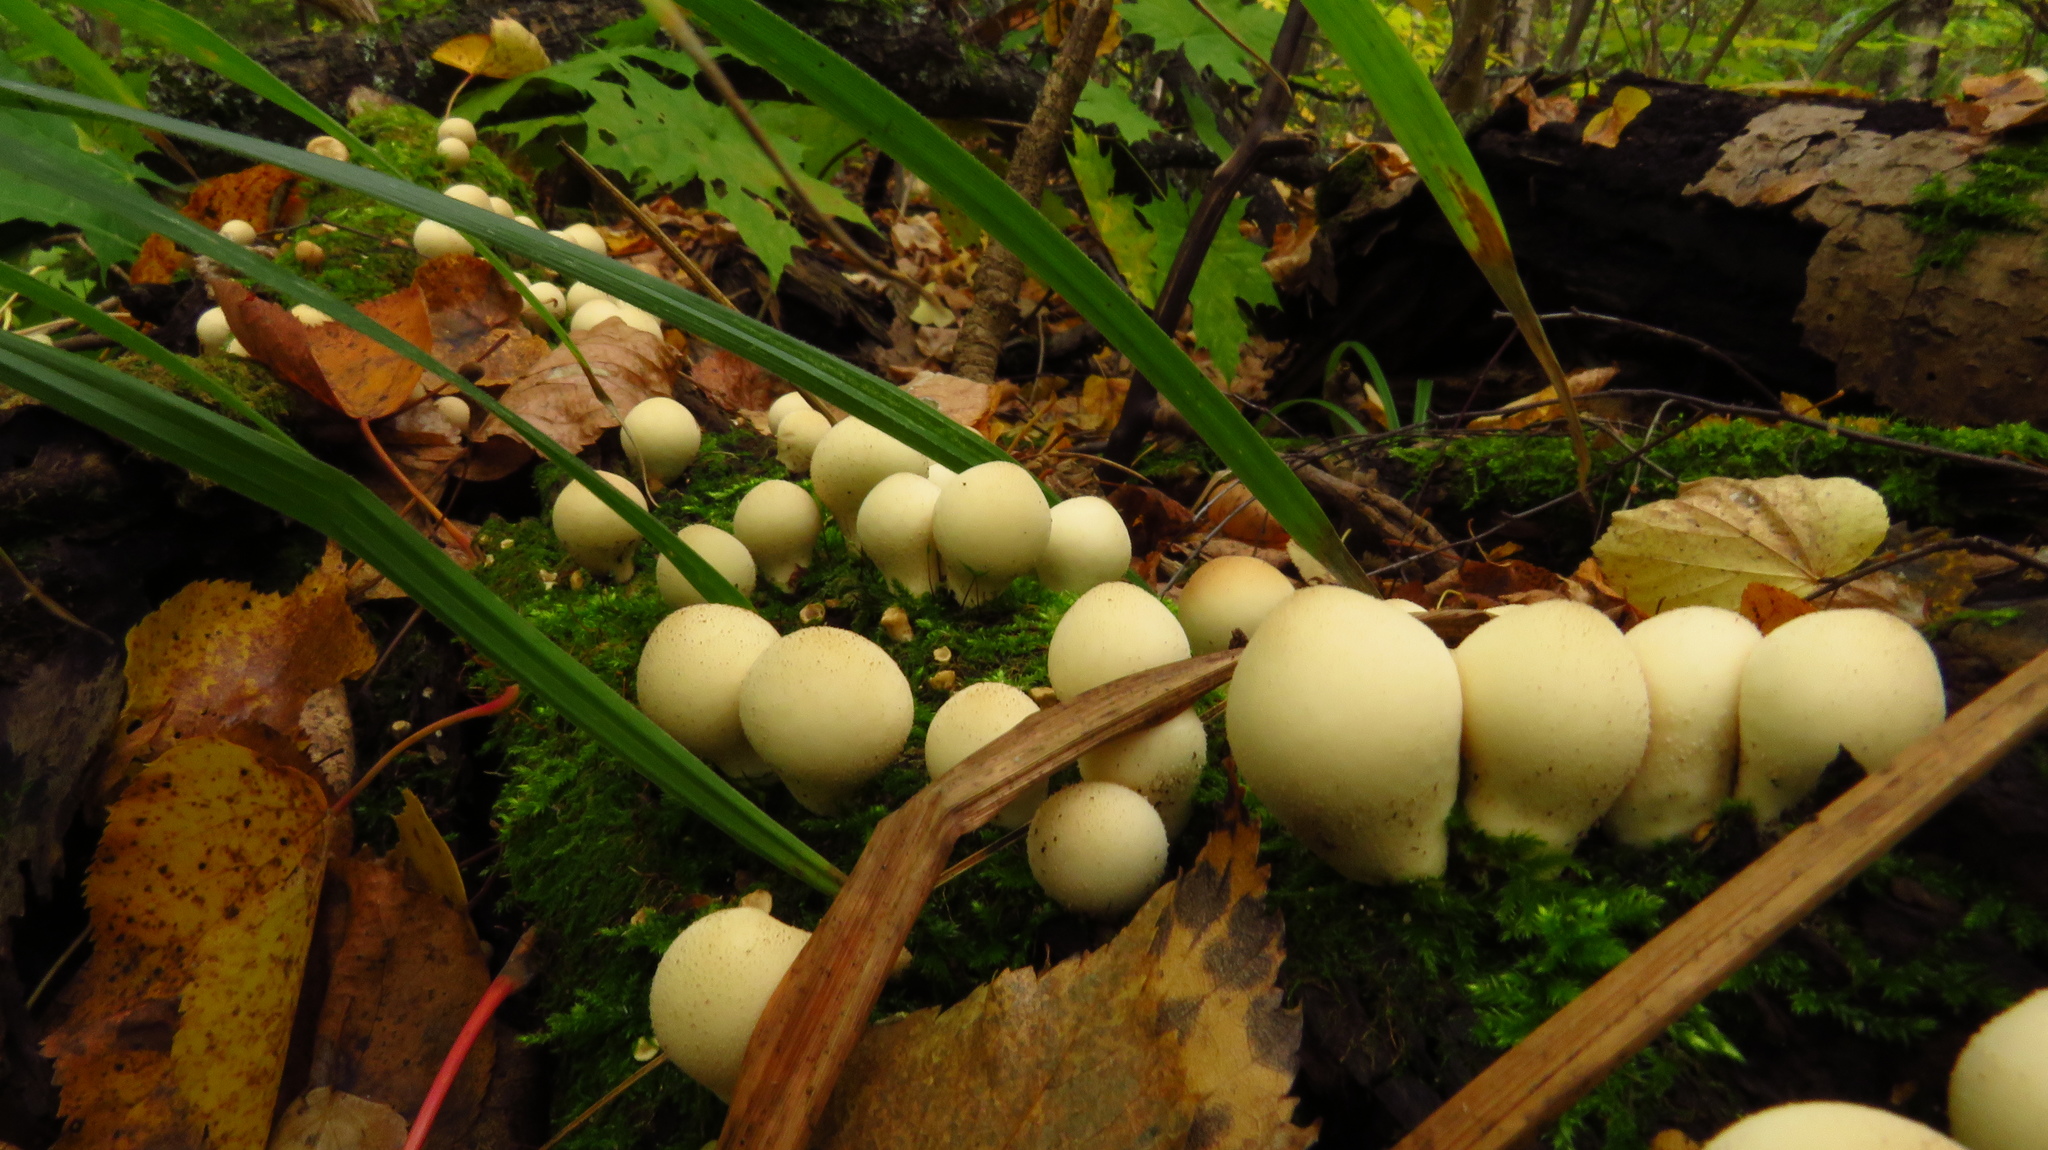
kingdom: Fungi
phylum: Basidiomycota
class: Agaricomycetes
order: Agaricales
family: Lycoperdaceae
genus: Apioperdon
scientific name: Apioperdon pyriforme
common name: Pear-shaped puffball
